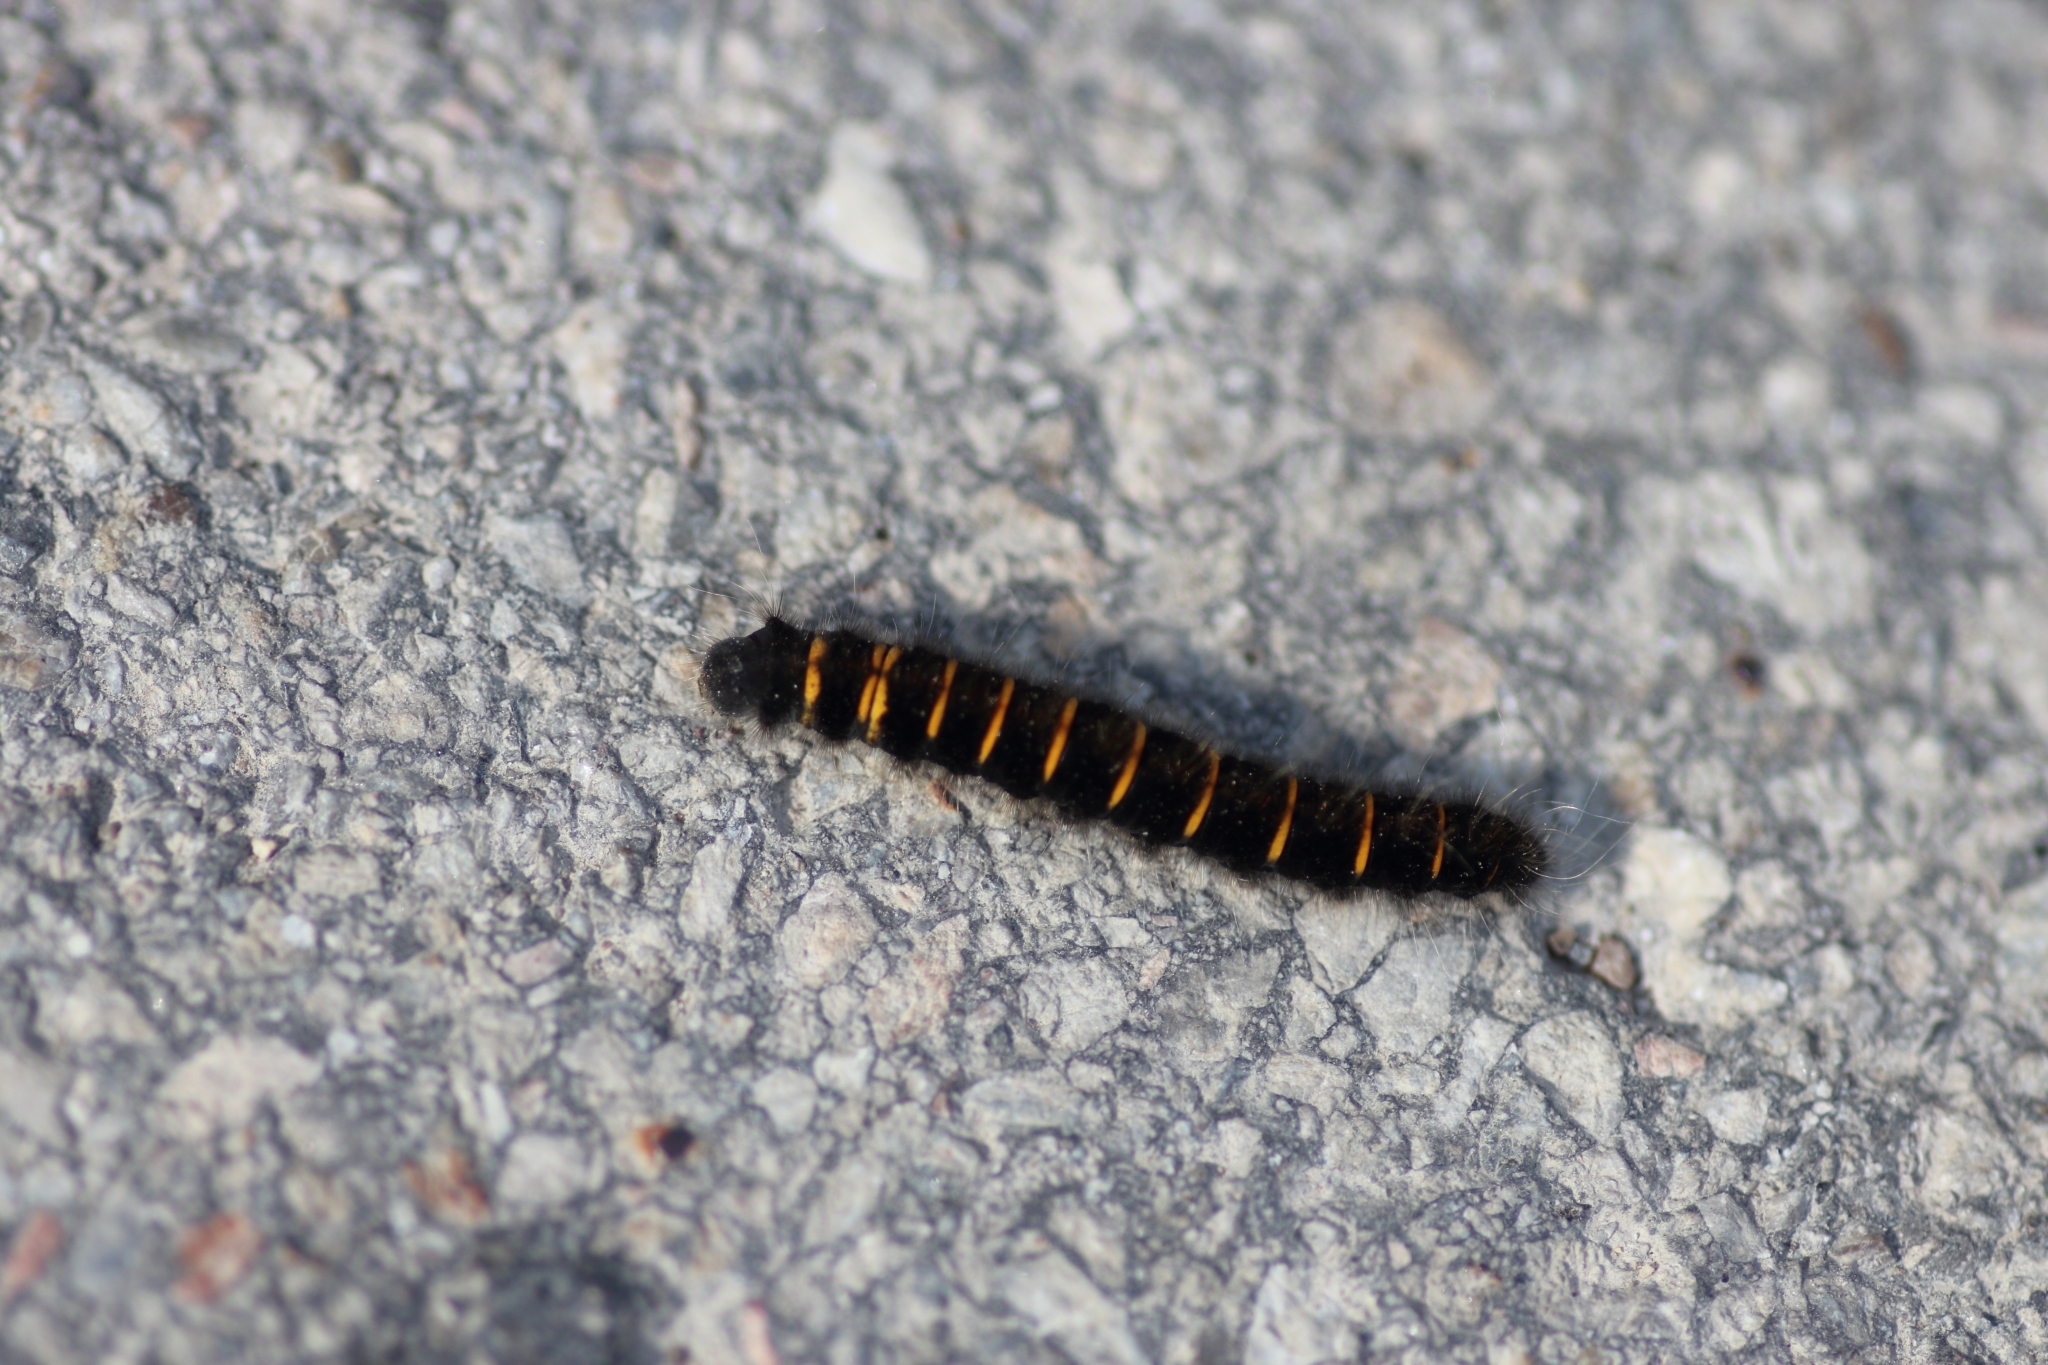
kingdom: Animalia
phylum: Arthropoda
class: Insecta
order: Lepidoptera
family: Lasiocampidae
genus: Macrothylacia
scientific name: Macrothylacia rubi
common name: Fox moth
